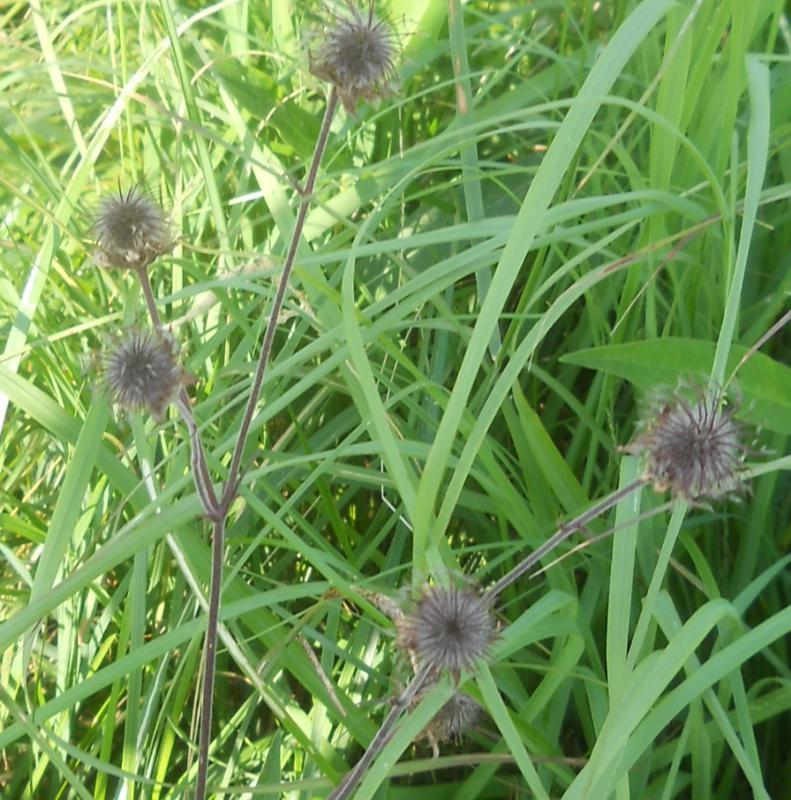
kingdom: Plantae
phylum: Tracheophyta
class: Magnoliopsida
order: Rosales
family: Rosaceae
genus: Geum
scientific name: Geum rivale
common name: Water avens
